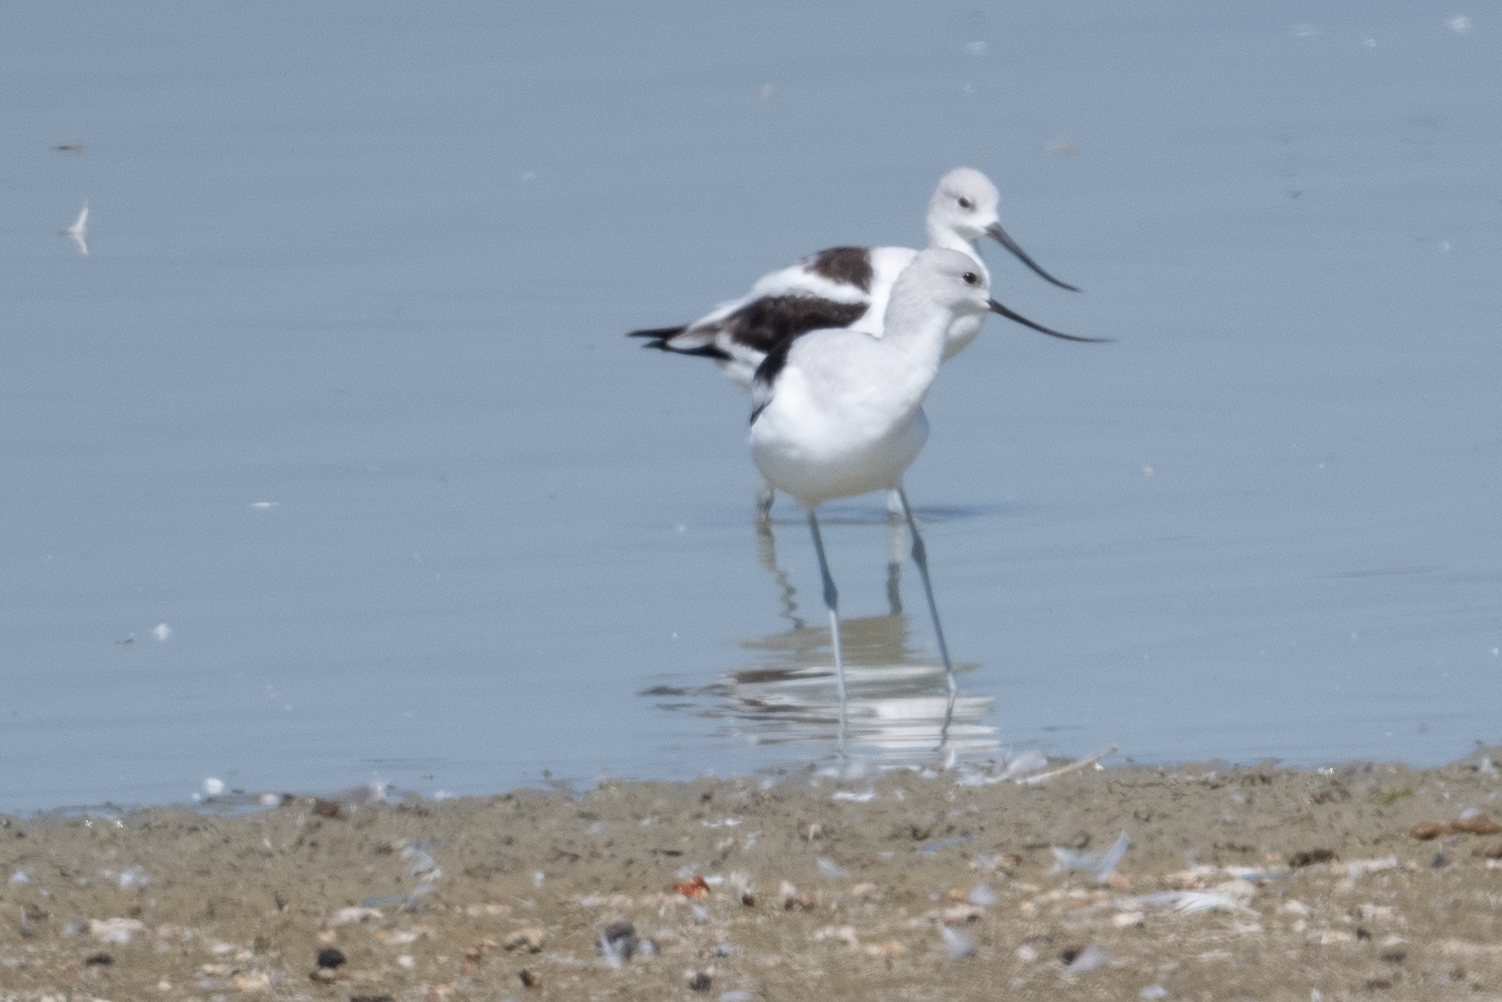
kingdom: Animalia
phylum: Chordata
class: Aves
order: Charadriiformes
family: Recurvirostridae
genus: Recurvirostra
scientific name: Recurvirostra americana
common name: American avocet
